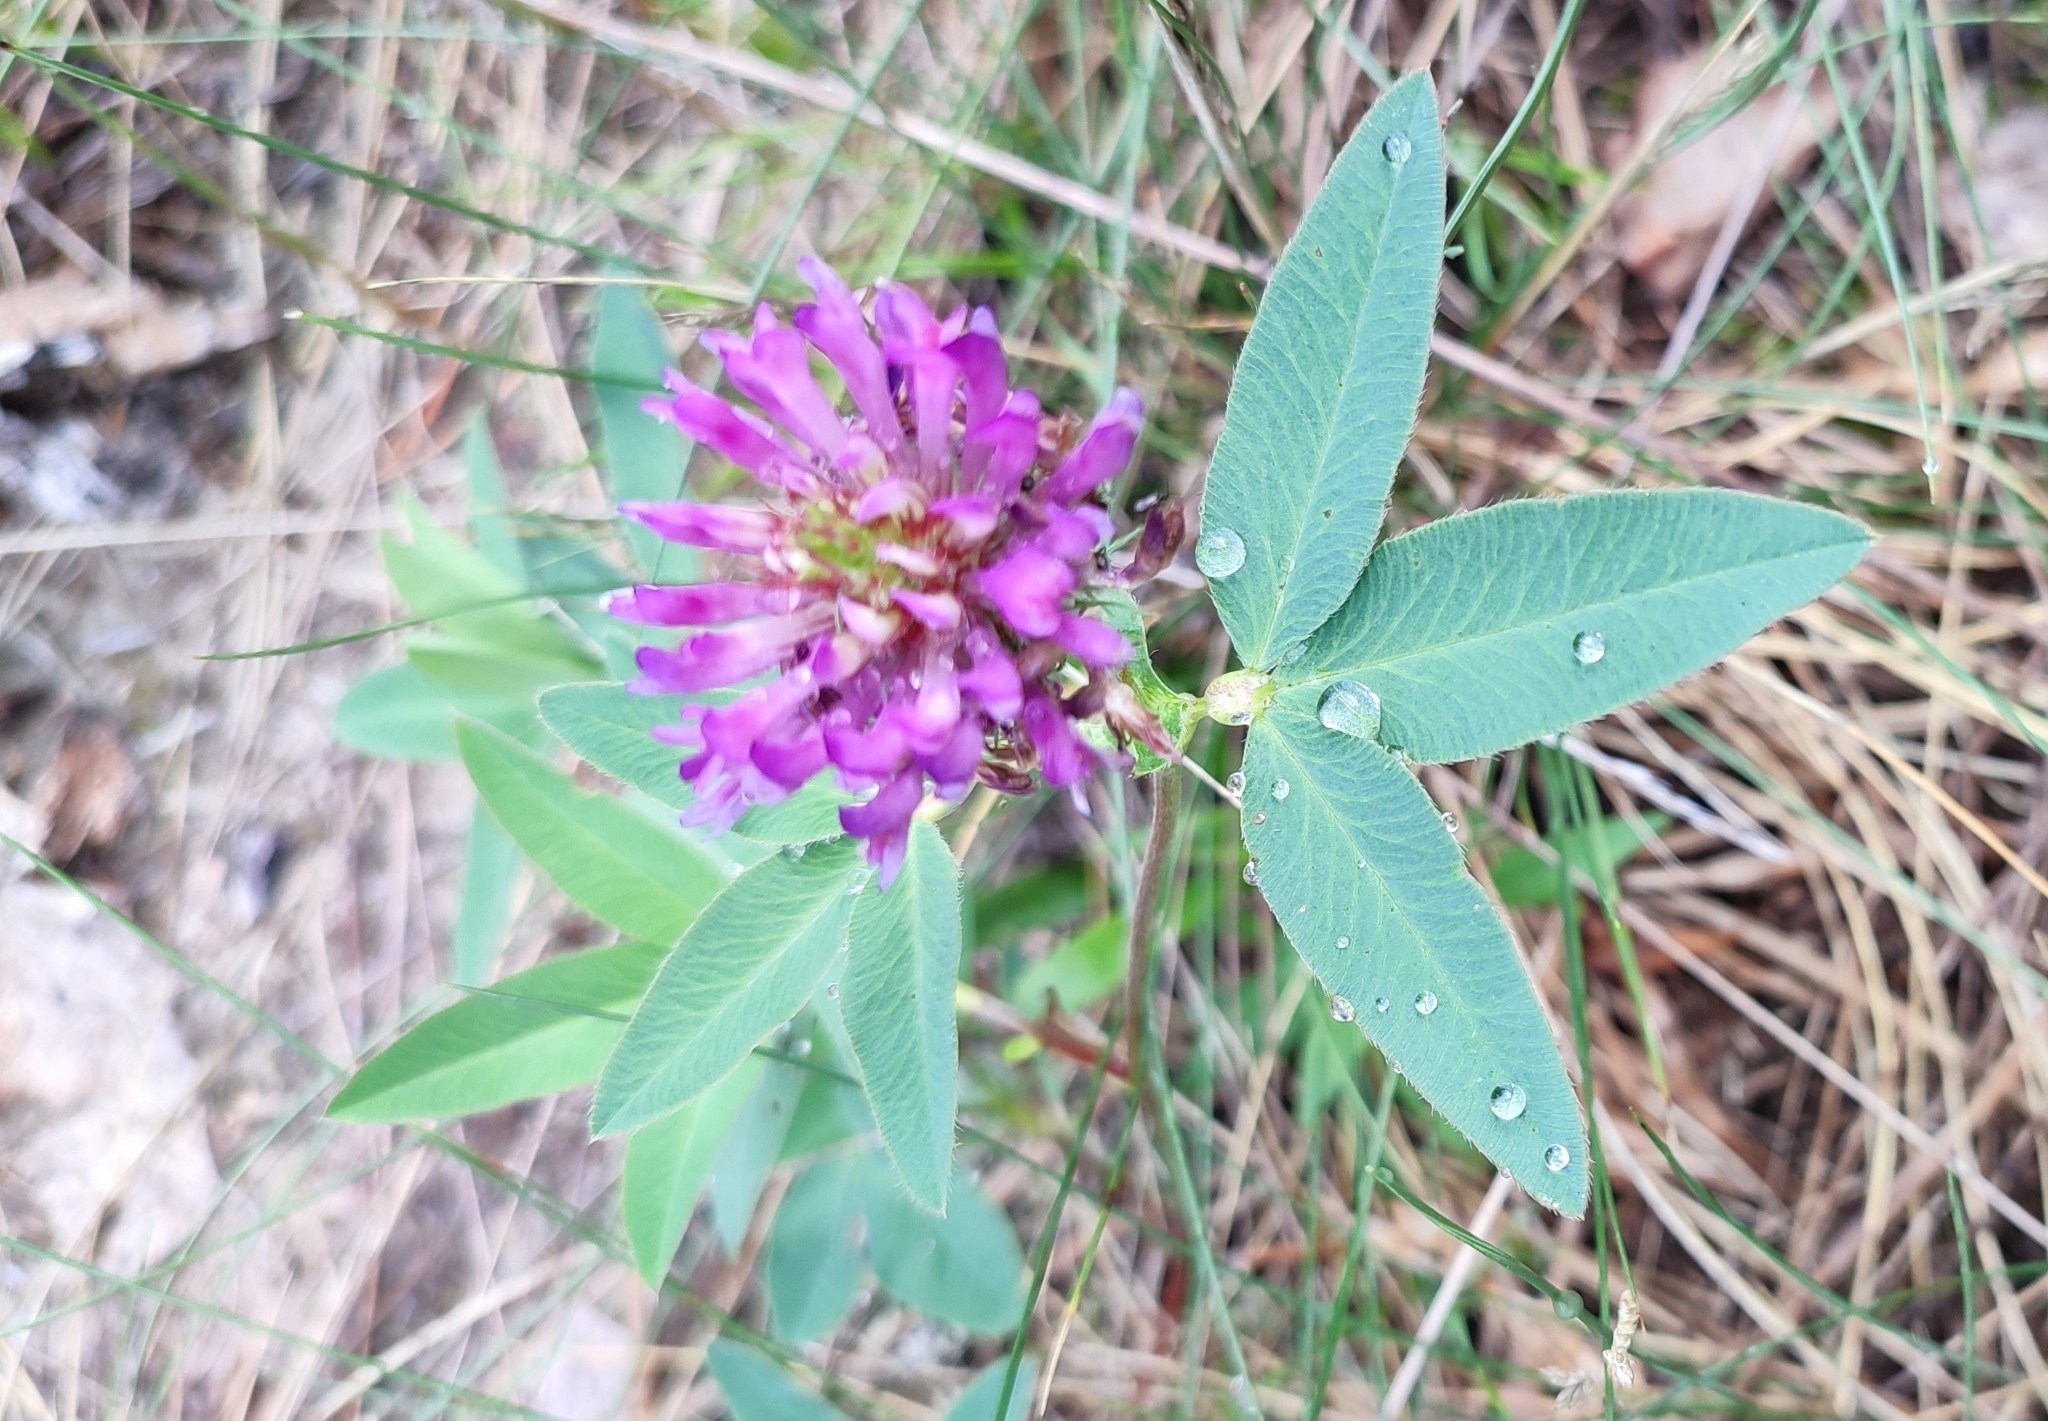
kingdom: Plantae
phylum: Tracheophyta
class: Magnoliopsida
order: Fabales
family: Fabaceae
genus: Trifolium
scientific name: Trifolium medium
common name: Zigzag clover
